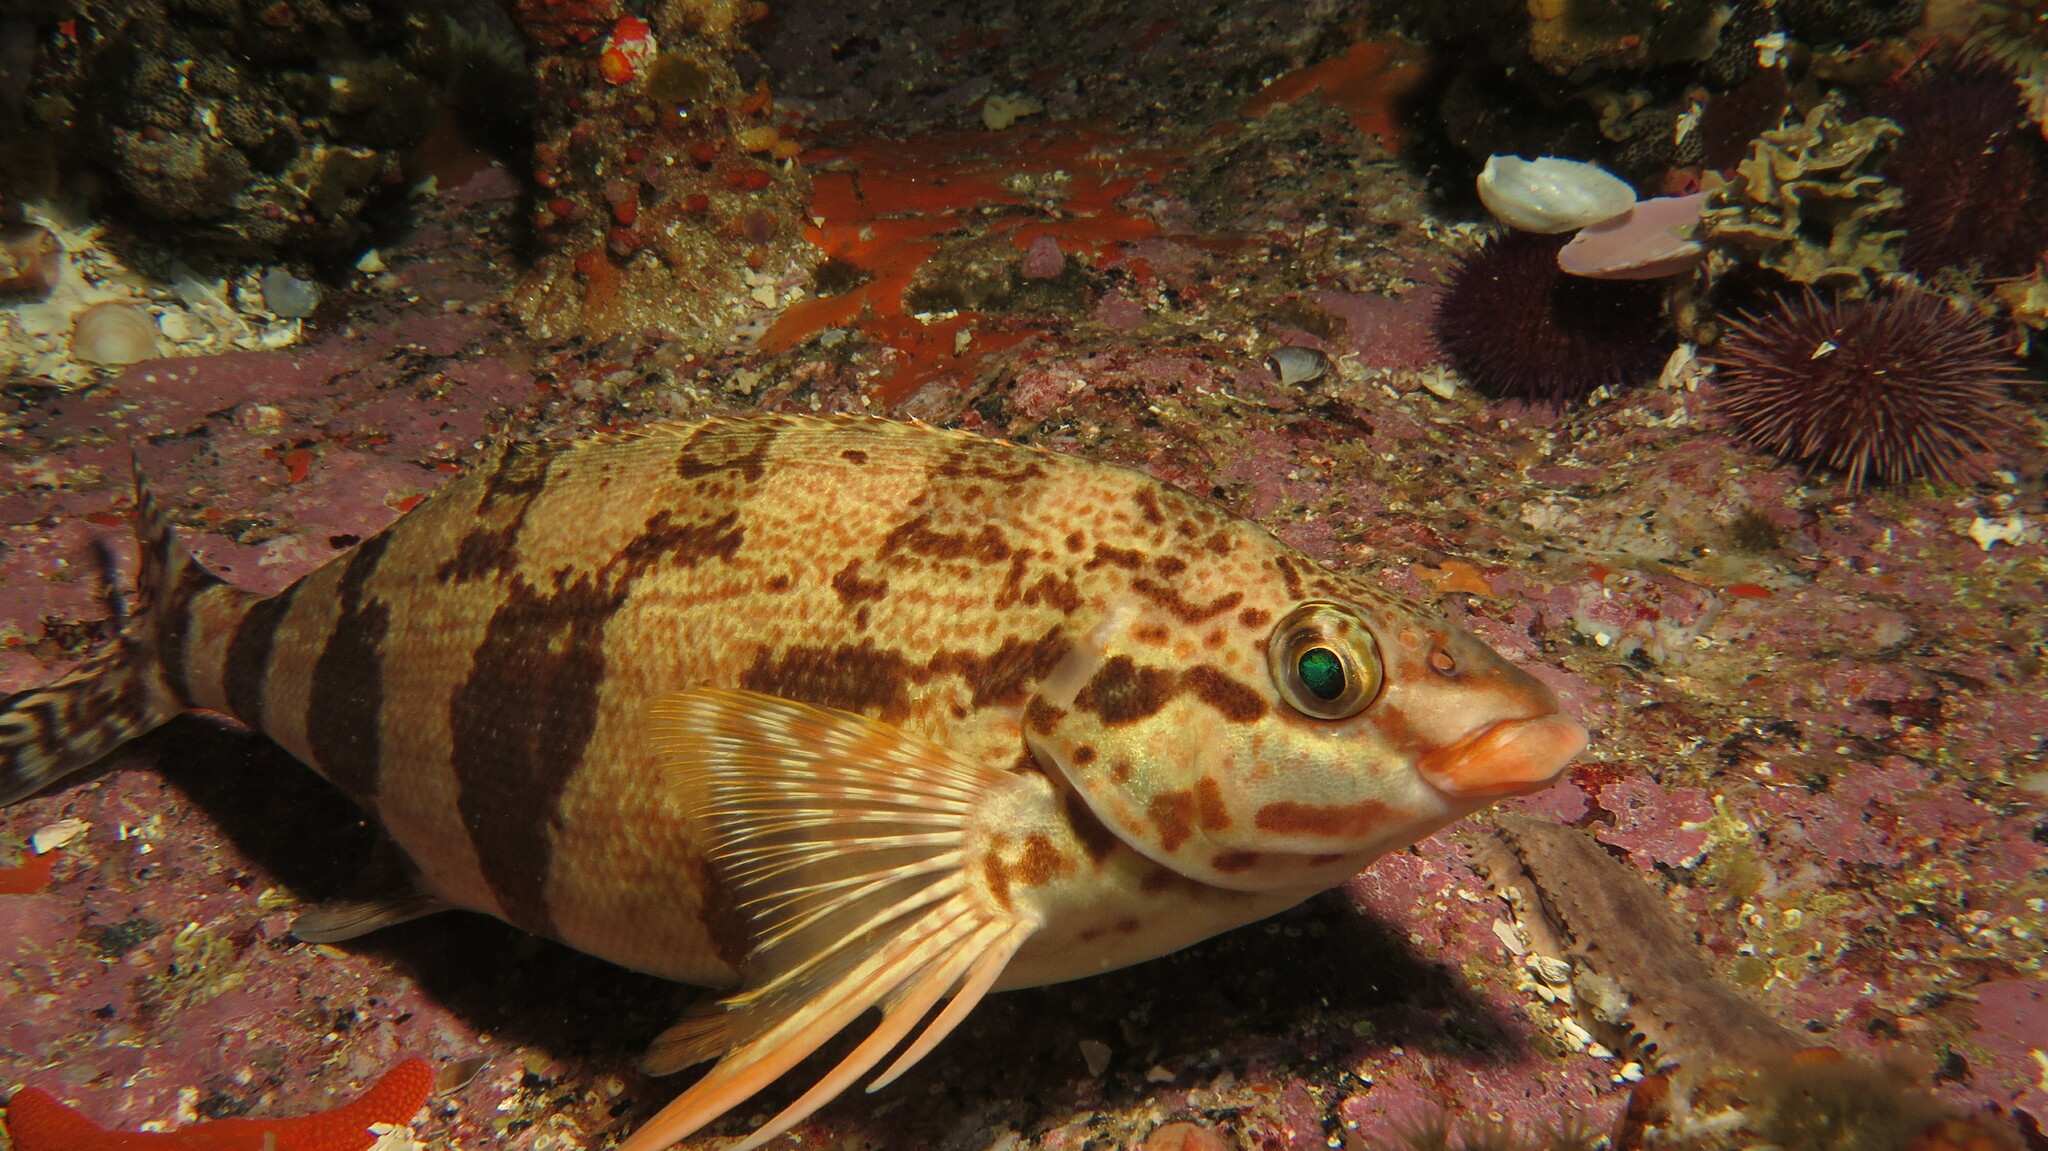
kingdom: Animalia
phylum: Chordata
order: Perciformes
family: Cheilodactylidae
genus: Cheilodactylus
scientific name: Cheilodactylus fasciatus
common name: Redfingers
